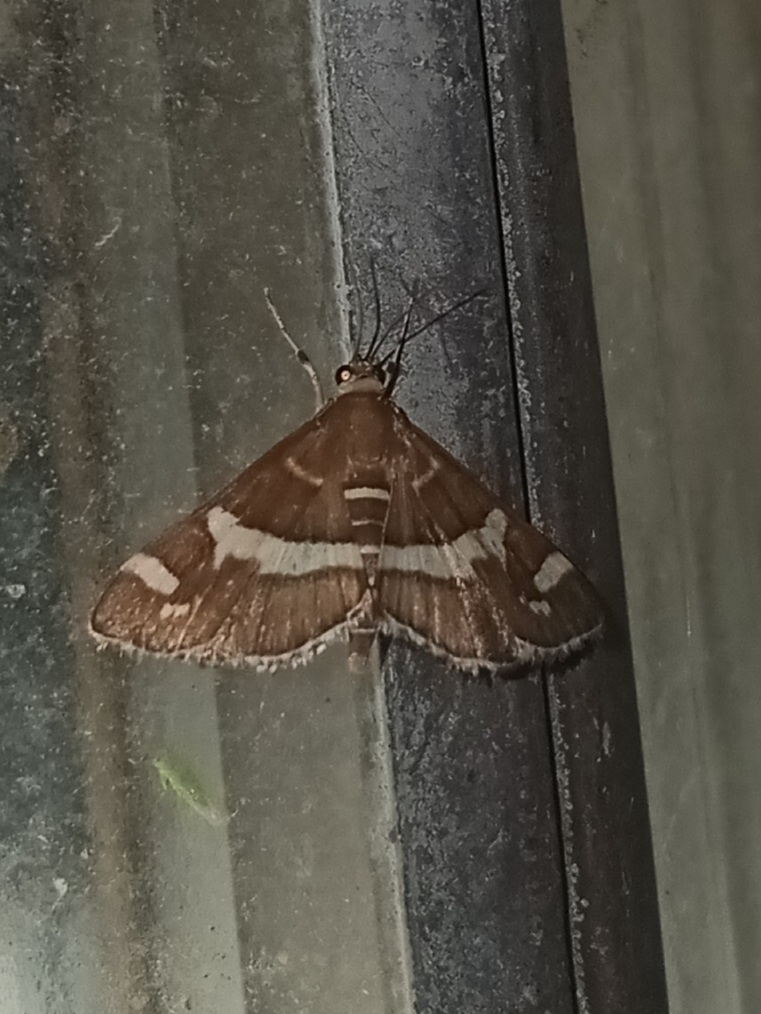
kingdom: Animalia
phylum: Arthropoda
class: Insecta
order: Lepidoptera
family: Crambidae
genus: Spoladea
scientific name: Spoladea recurvalis
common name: Beet webworm moth
